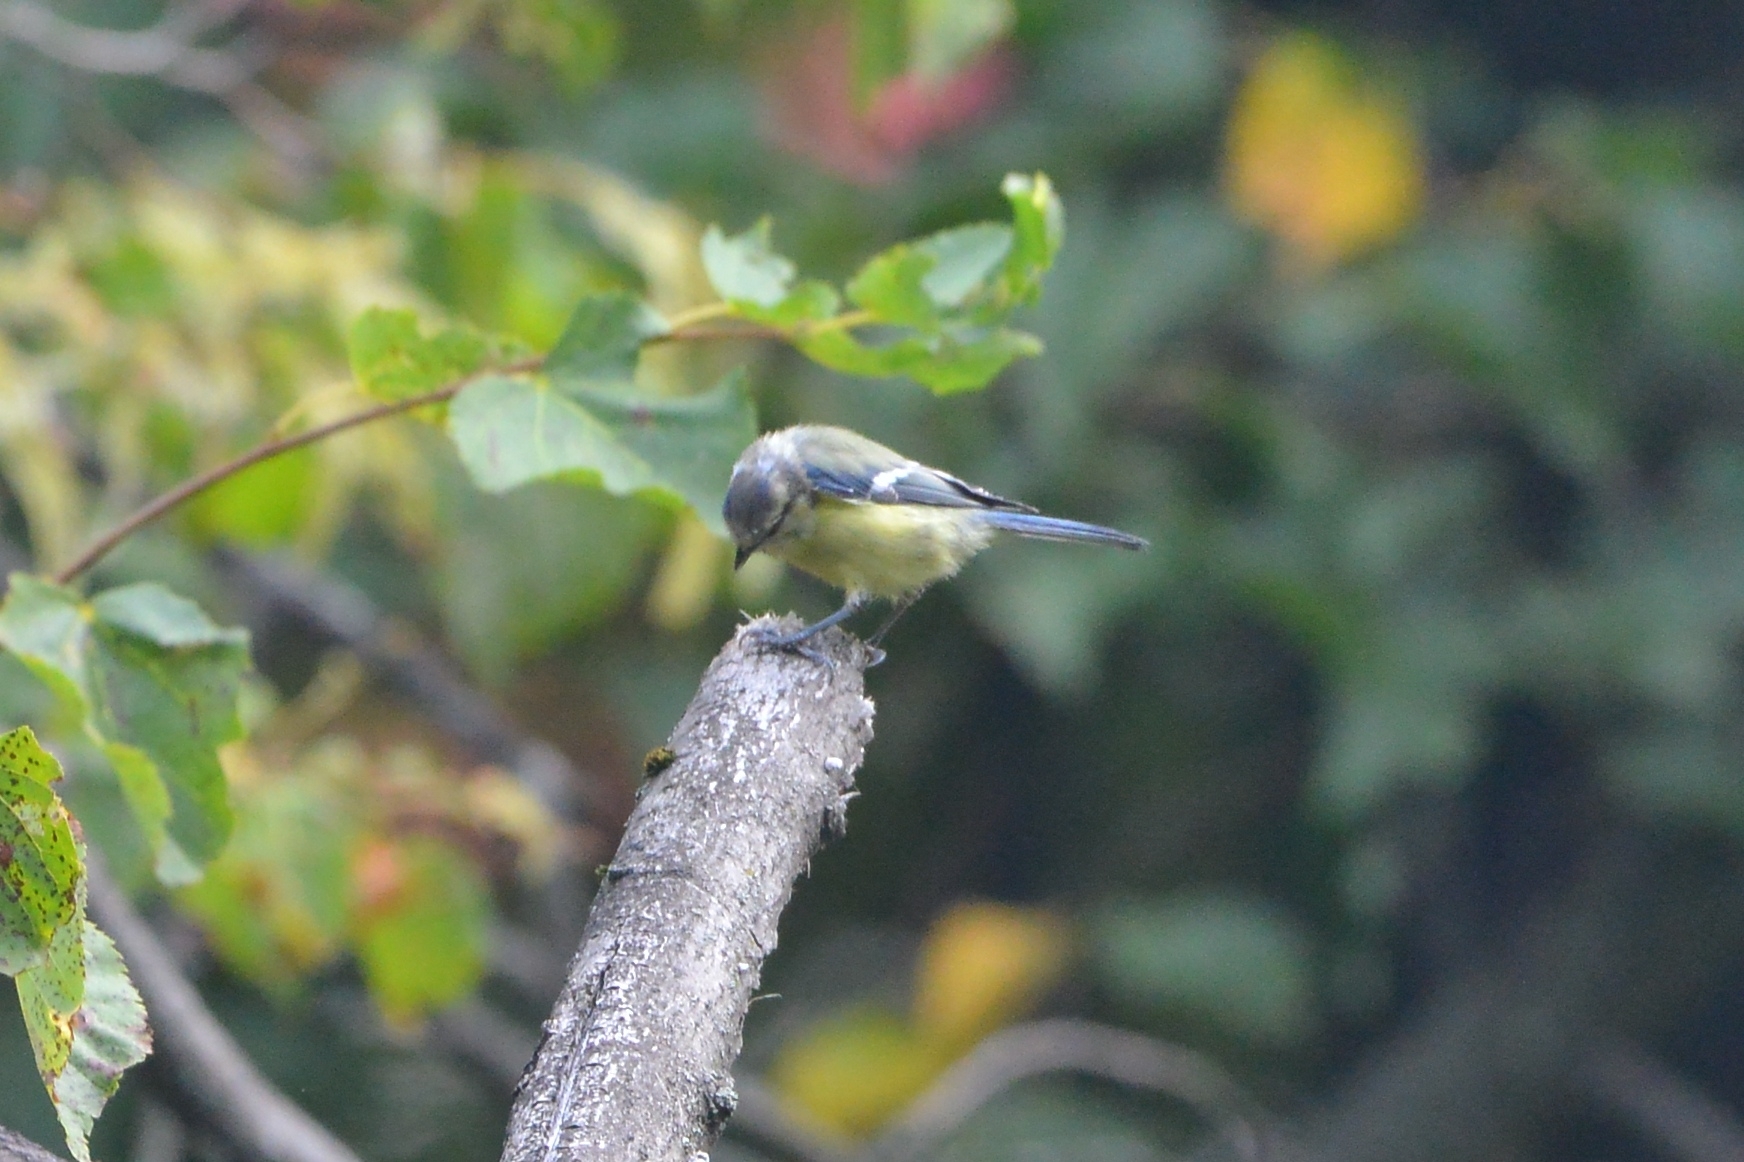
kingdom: Animalia
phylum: Chordata
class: Aves
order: Passeriformes
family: Paridae
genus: Cyanistes
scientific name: Cyanistes caeruleus
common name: Eurasian blue tit
